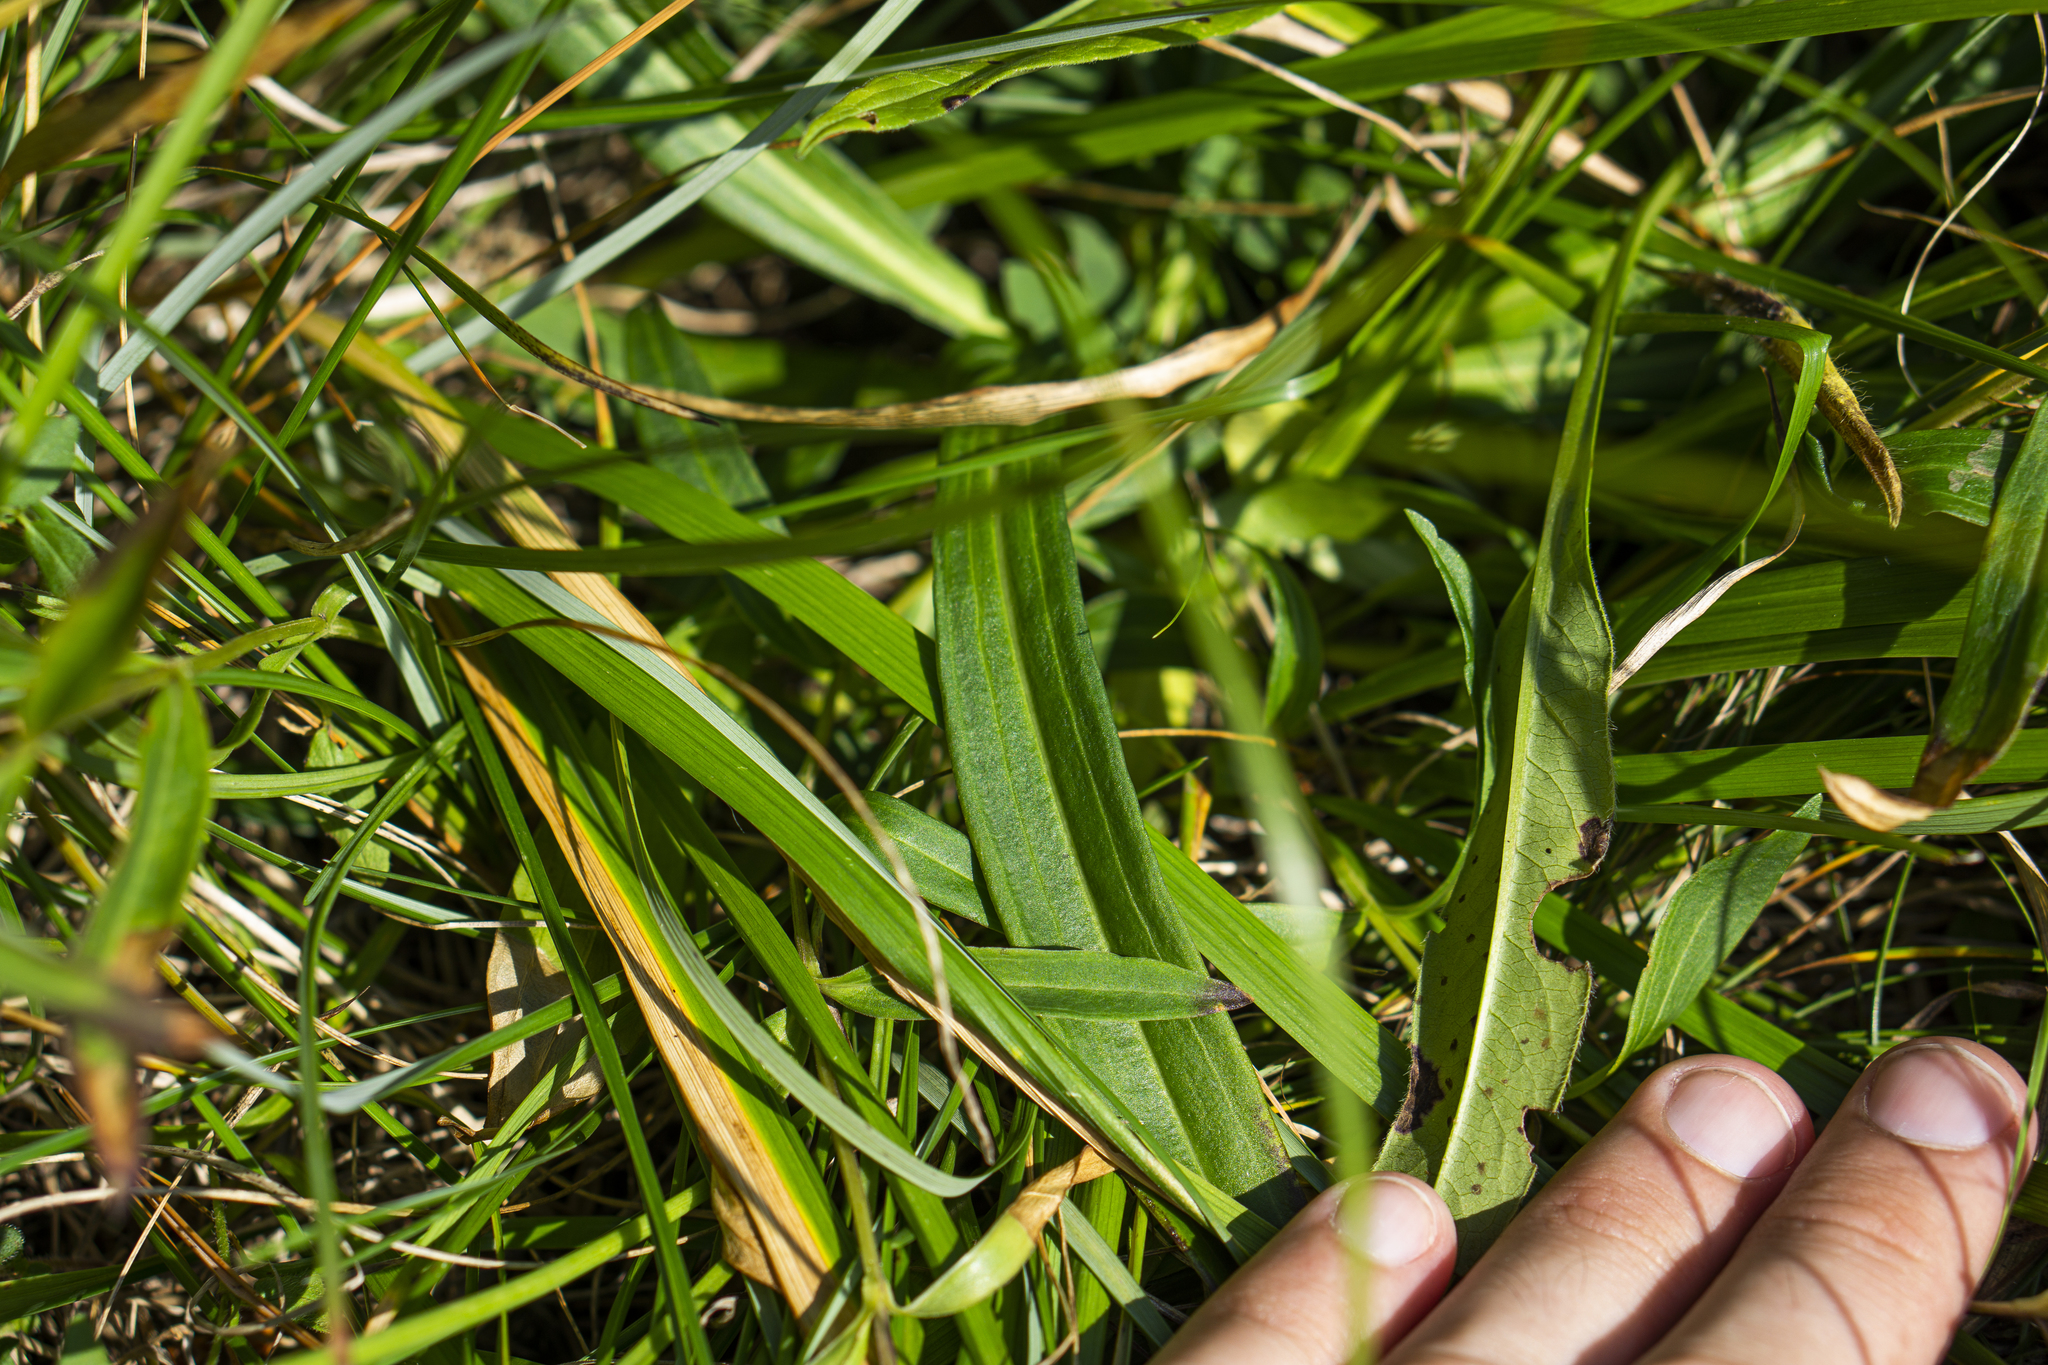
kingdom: Plantae
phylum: Tracheophyta
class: Magnoliopsida
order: Gentianales
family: Gentianaceae
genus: Gentiana
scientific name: Gentiana cruciata
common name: Cross gentian
